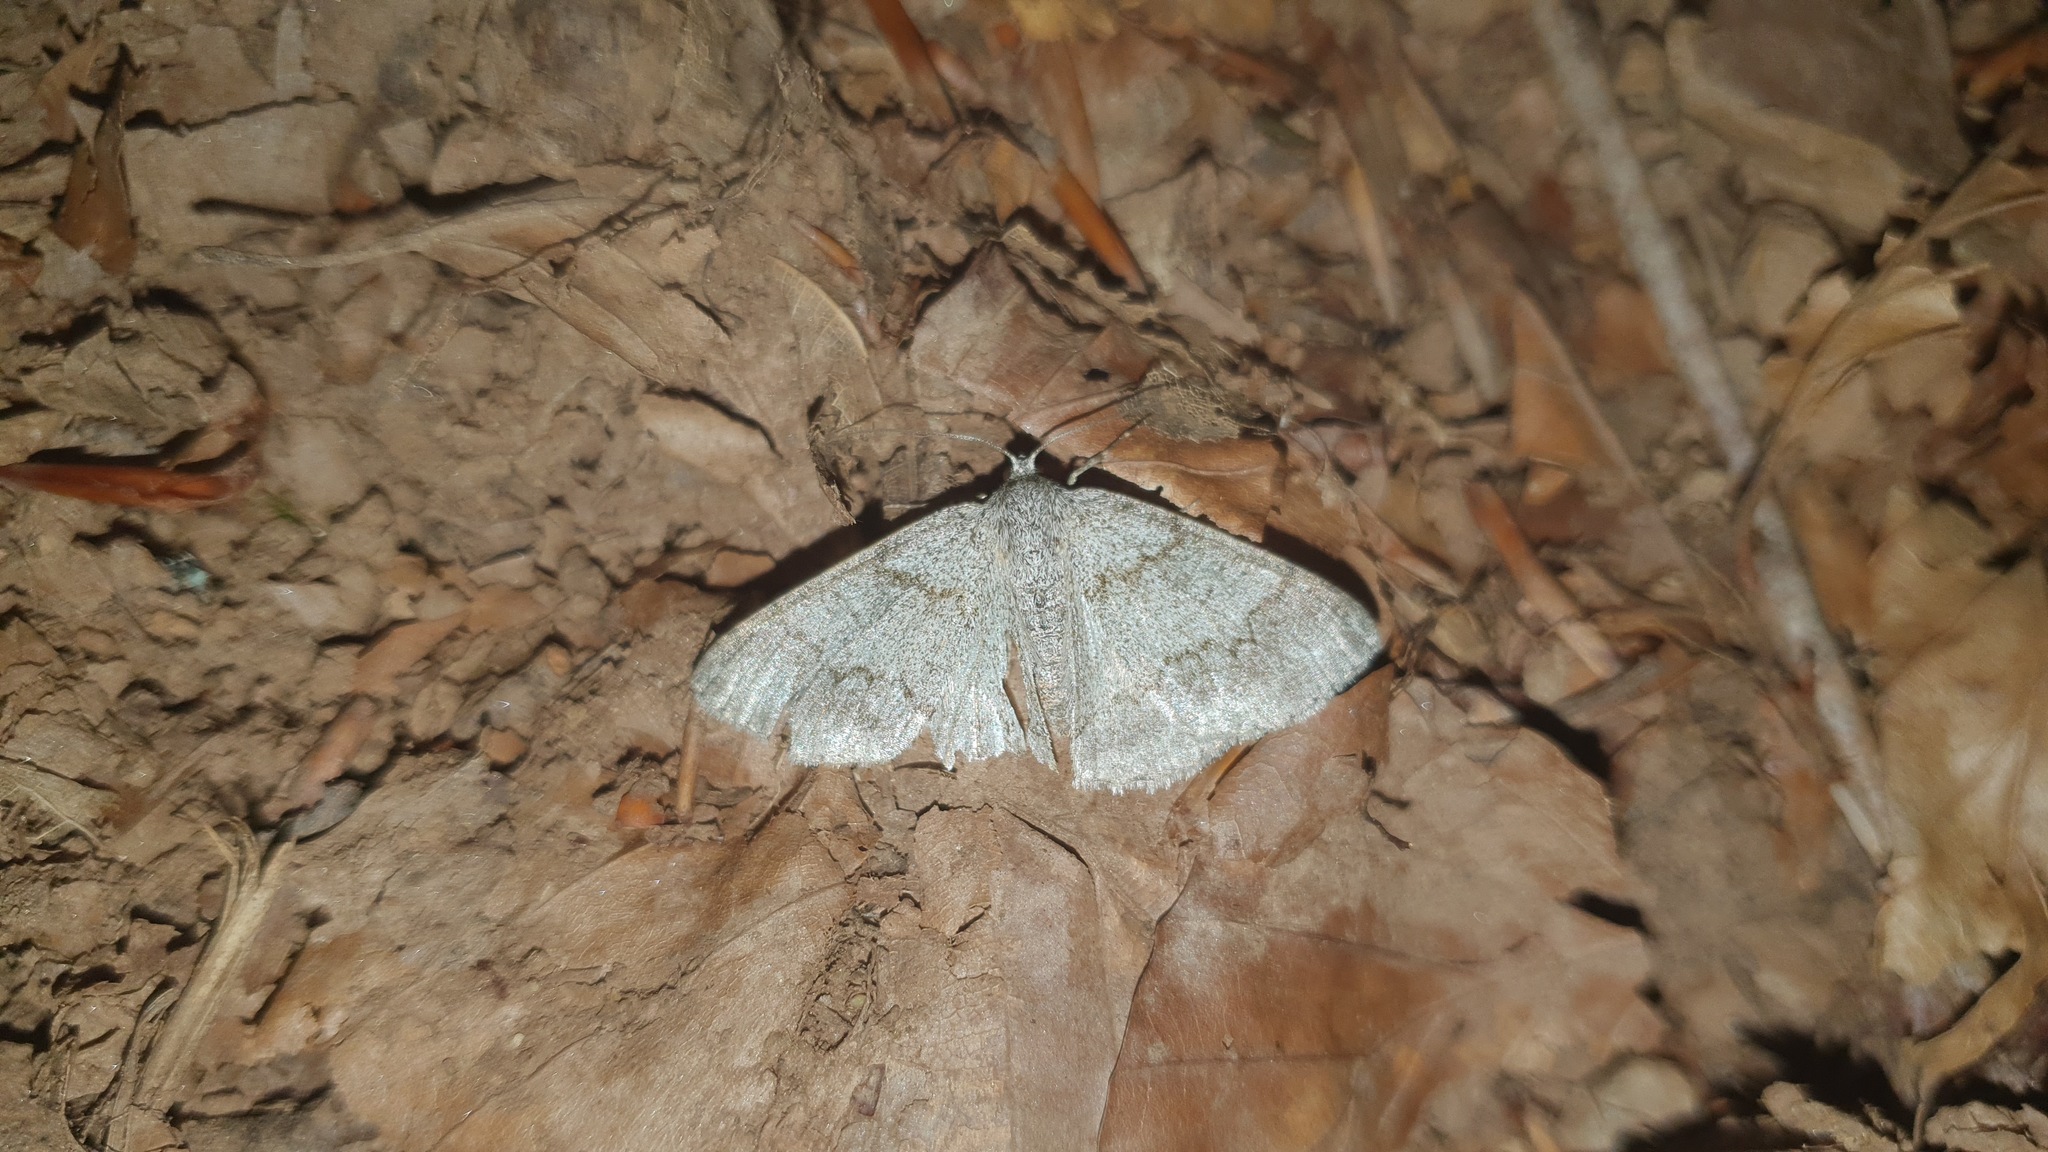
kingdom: Animalia
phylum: Arthropoda
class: Insecta
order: Lepidoptera
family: Geometridae
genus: Pseudoterpna
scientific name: Pseudoterpna coronillaria
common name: Jersey emerald
